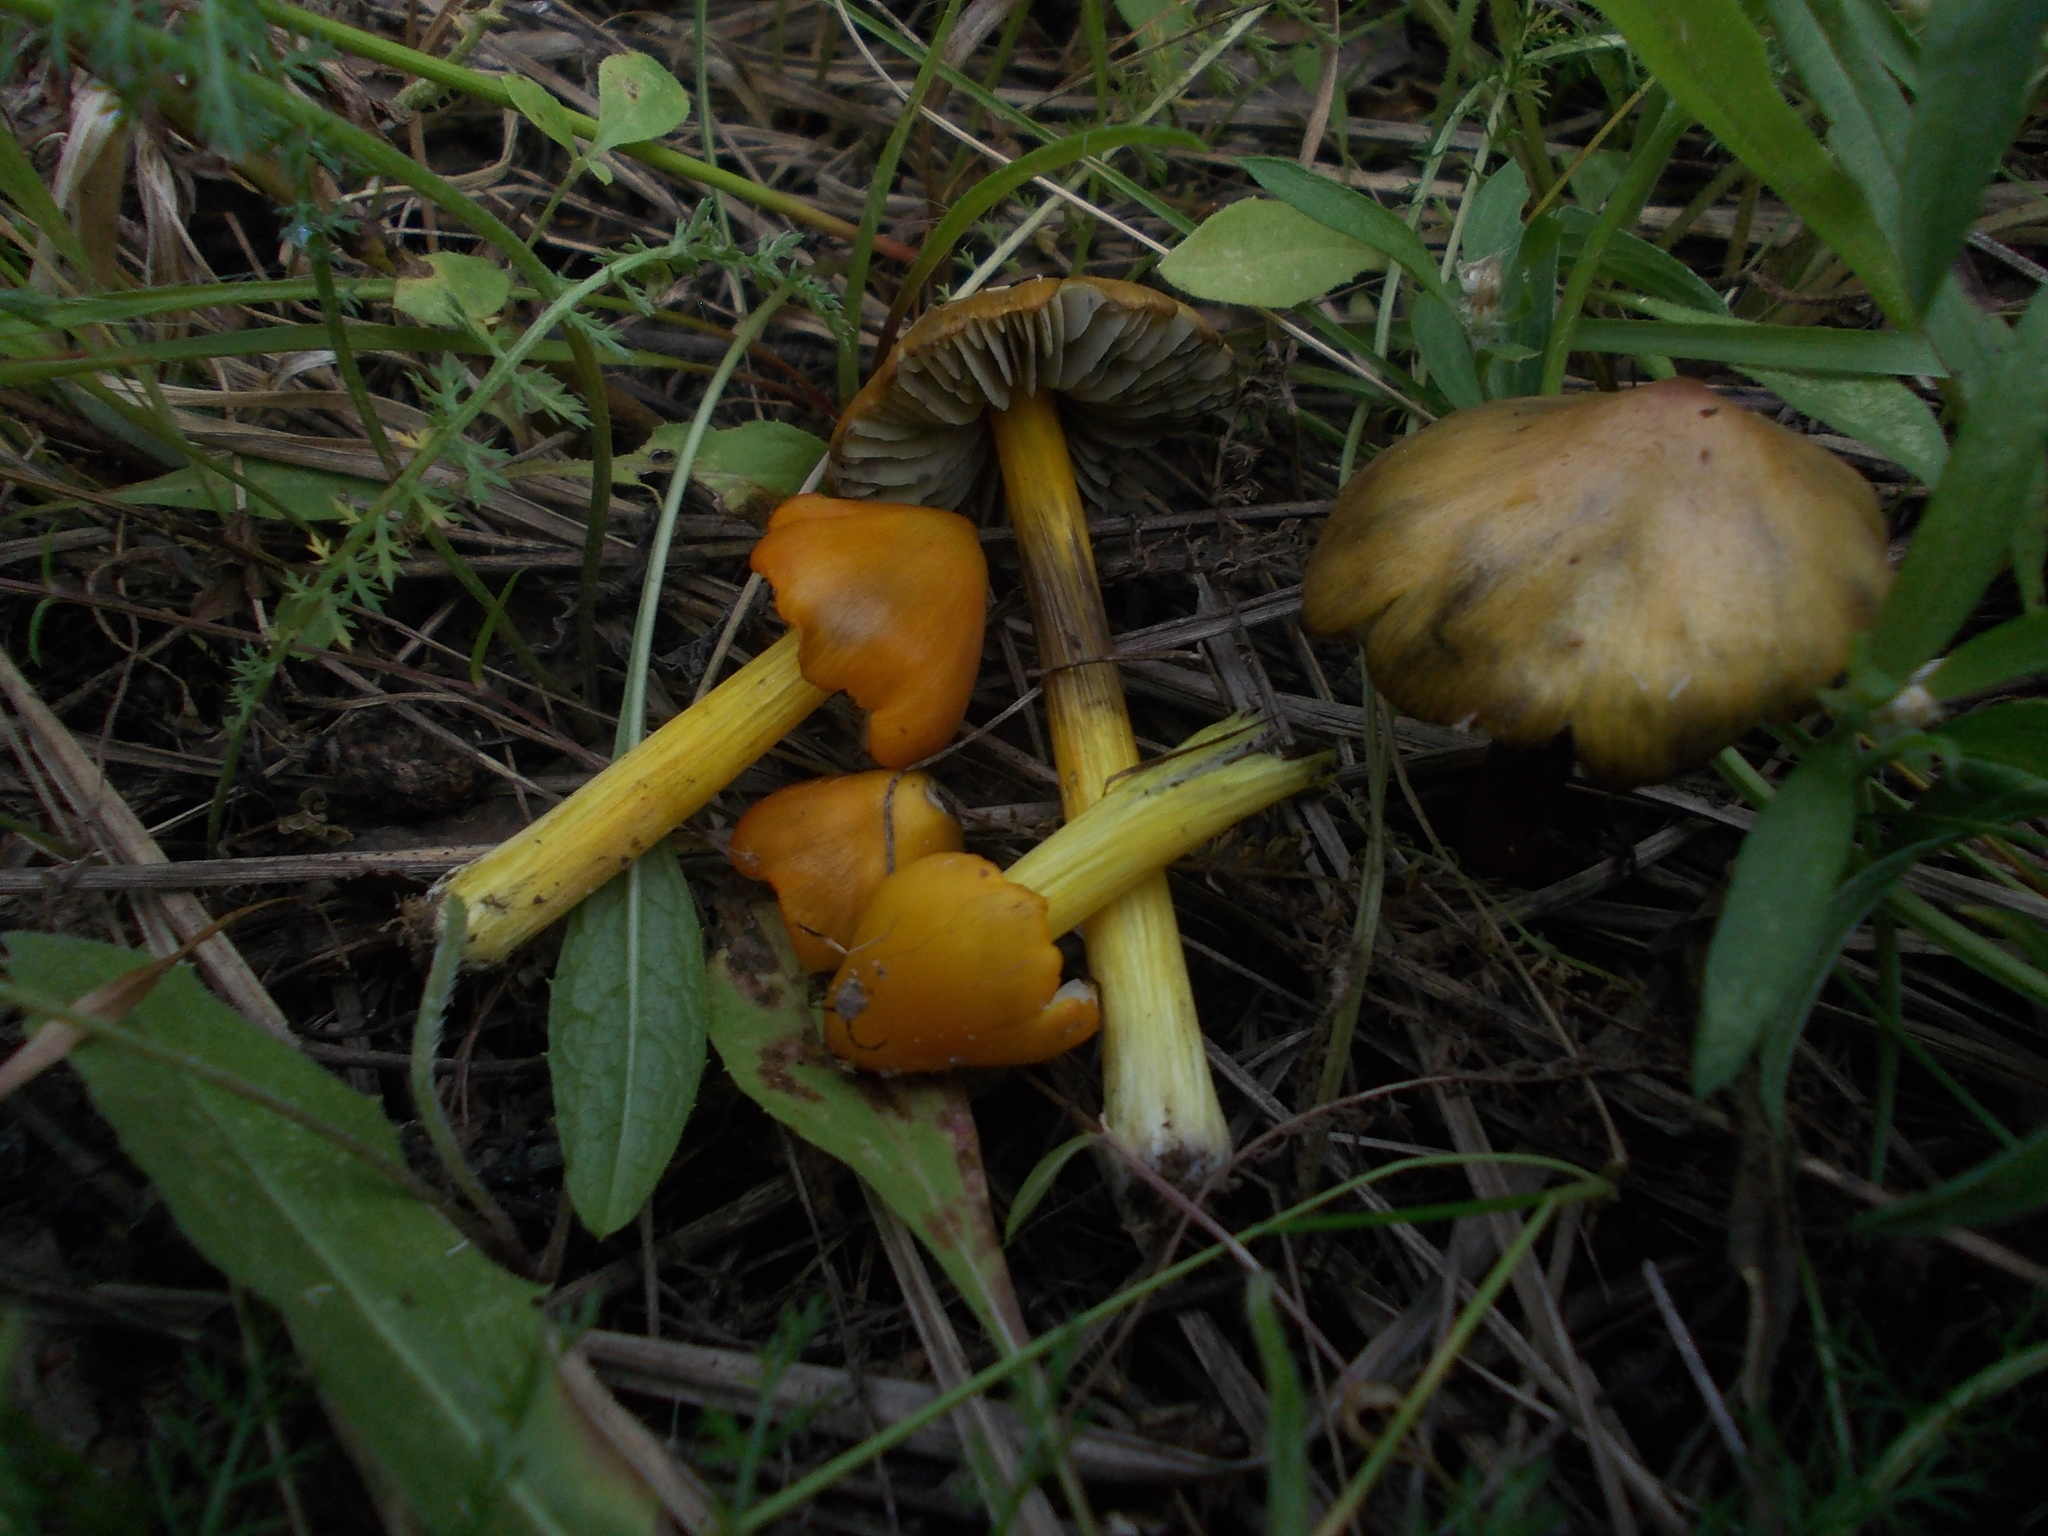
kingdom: Fungi
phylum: Basidiomycota
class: Agaricomycetes
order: Agaricales
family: Hygrophoraceae
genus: Hygrocybe
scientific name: Hygrocybe conica
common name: Blackening wax-cap
